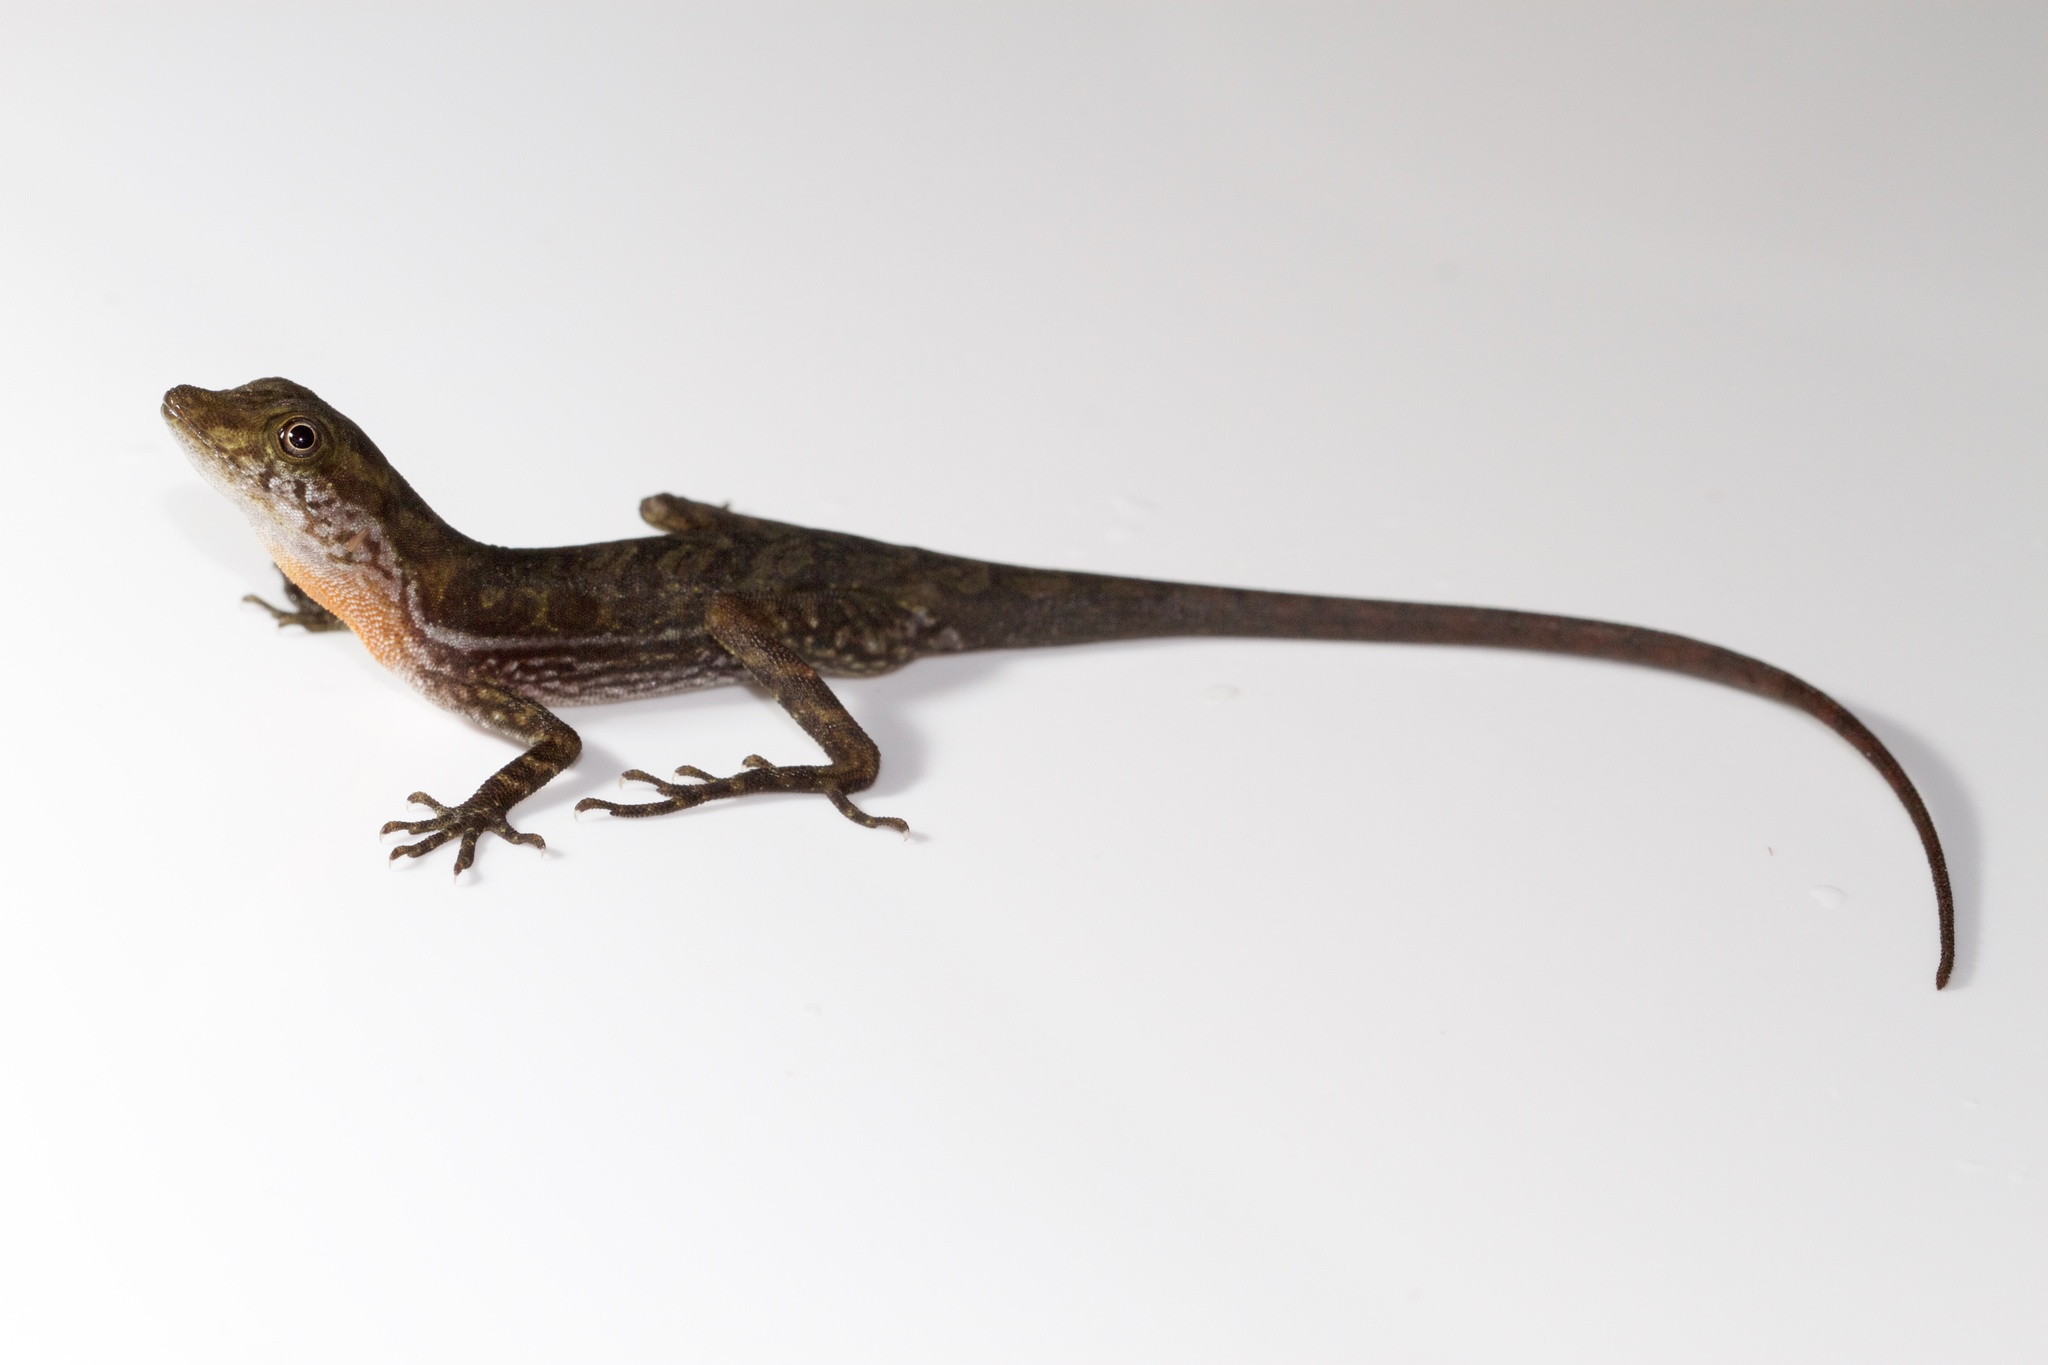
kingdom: Animalia
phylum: Chordata
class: Squamata
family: Dactyloidae
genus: Anolis
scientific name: Anolis poecilopus
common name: Dappled anole
